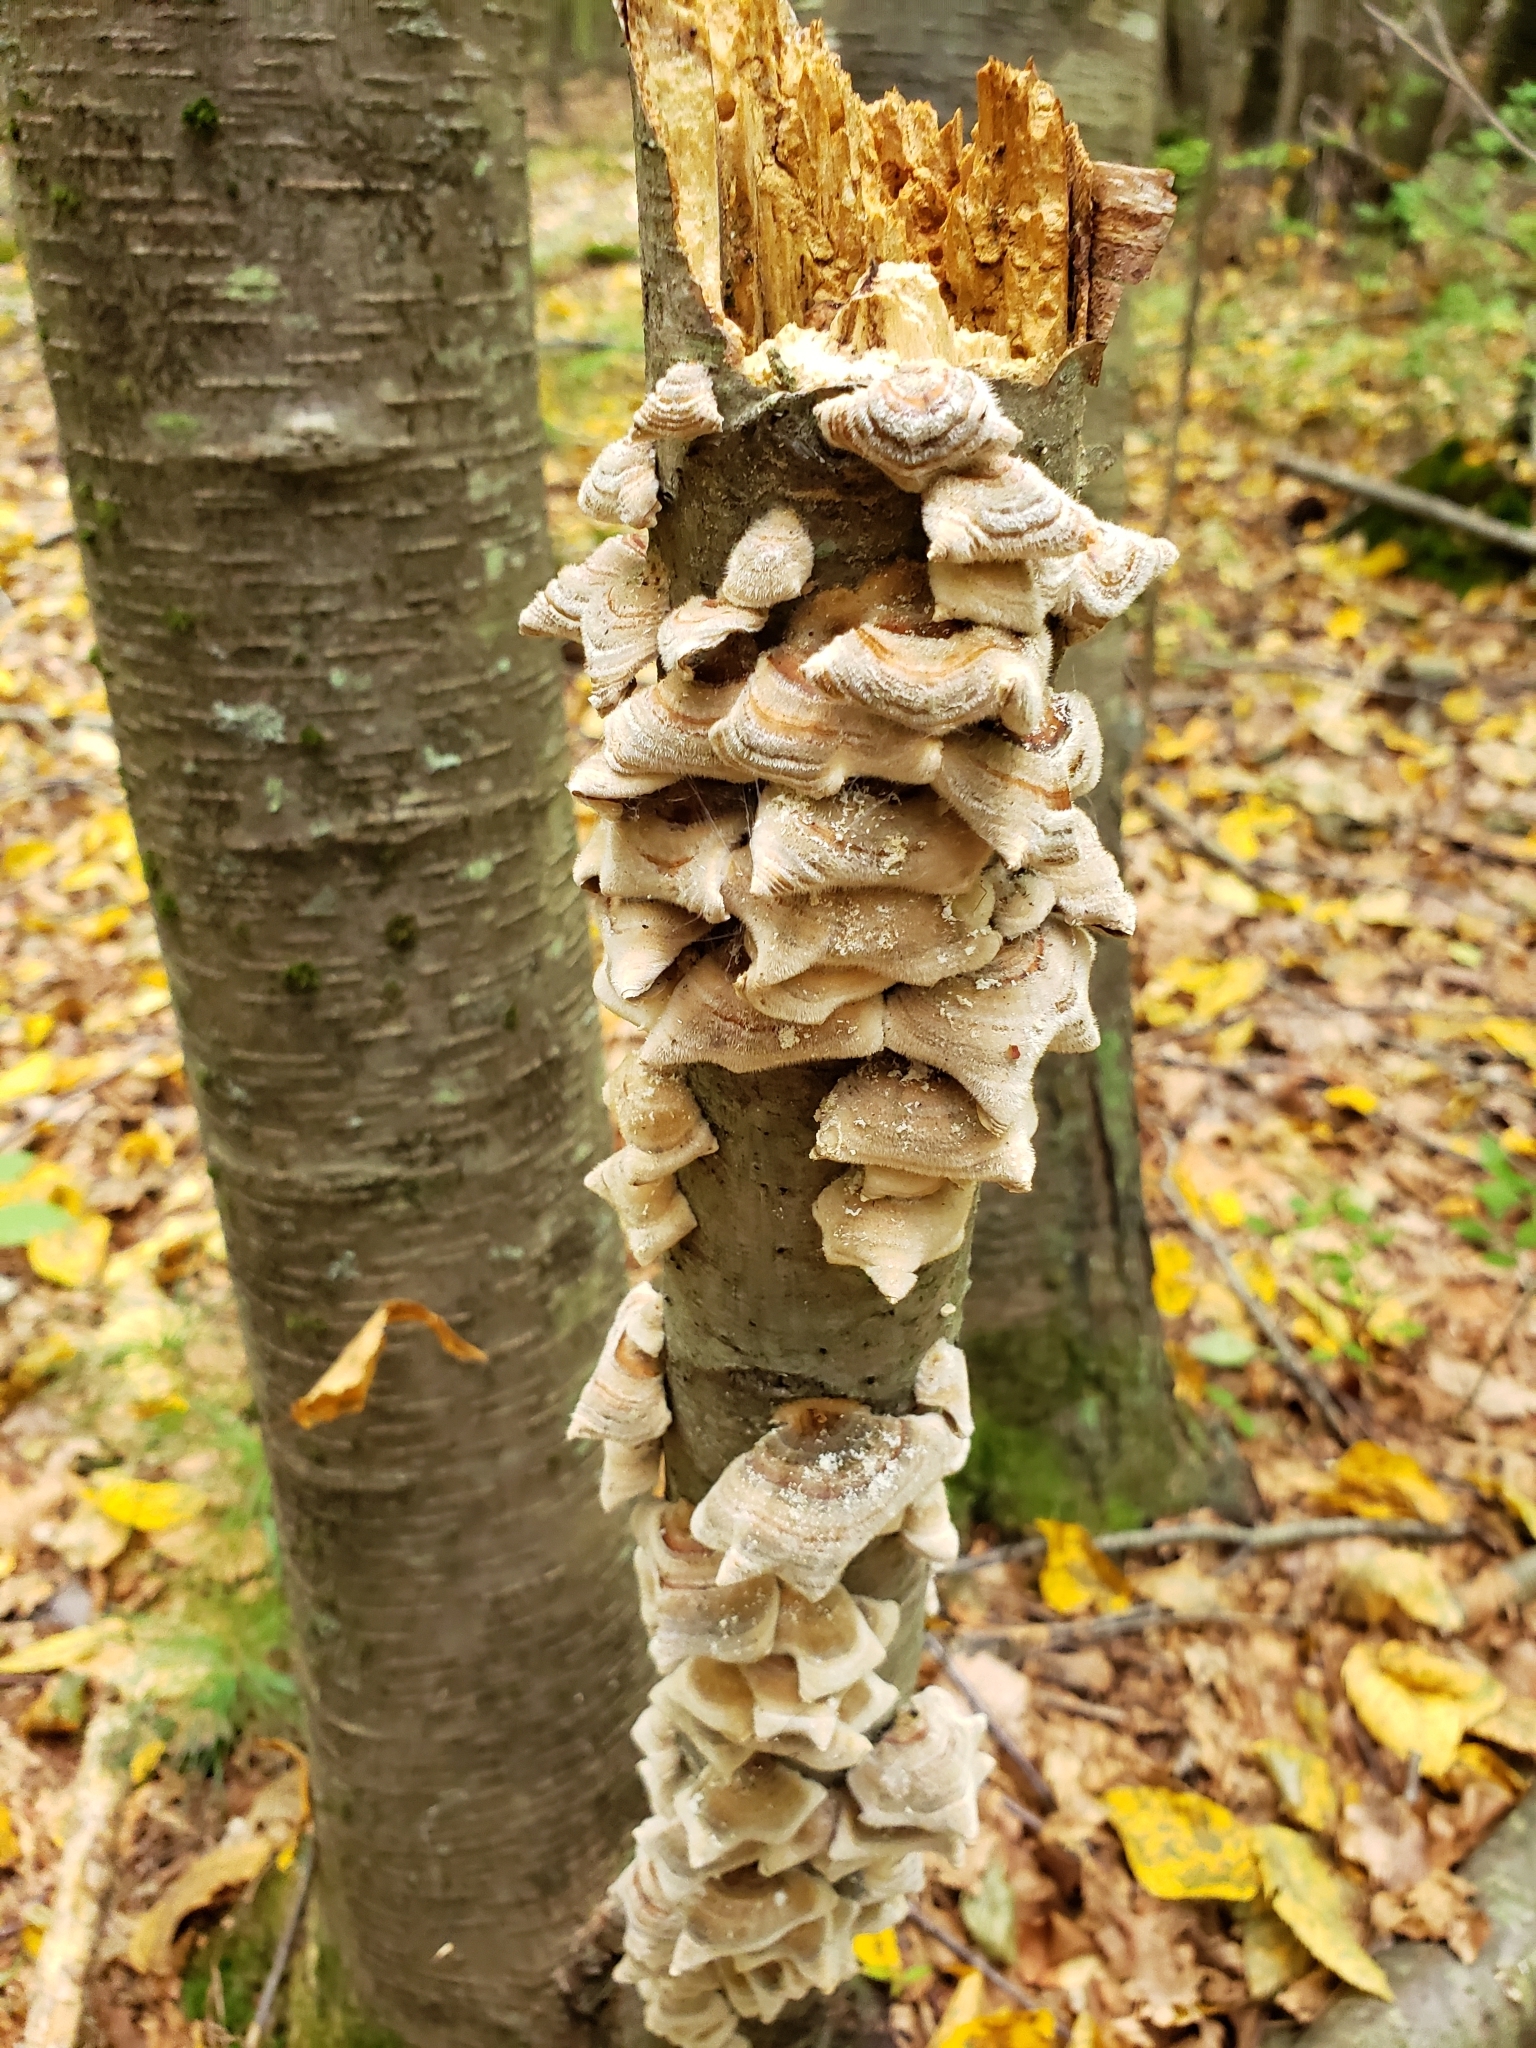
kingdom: Fungi
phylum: Basidiomycota
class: Agaricomycetes
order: Polyporales
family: Polyporaceae
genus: Trametes
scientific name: Trametes versicolor
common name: Turkeytail
